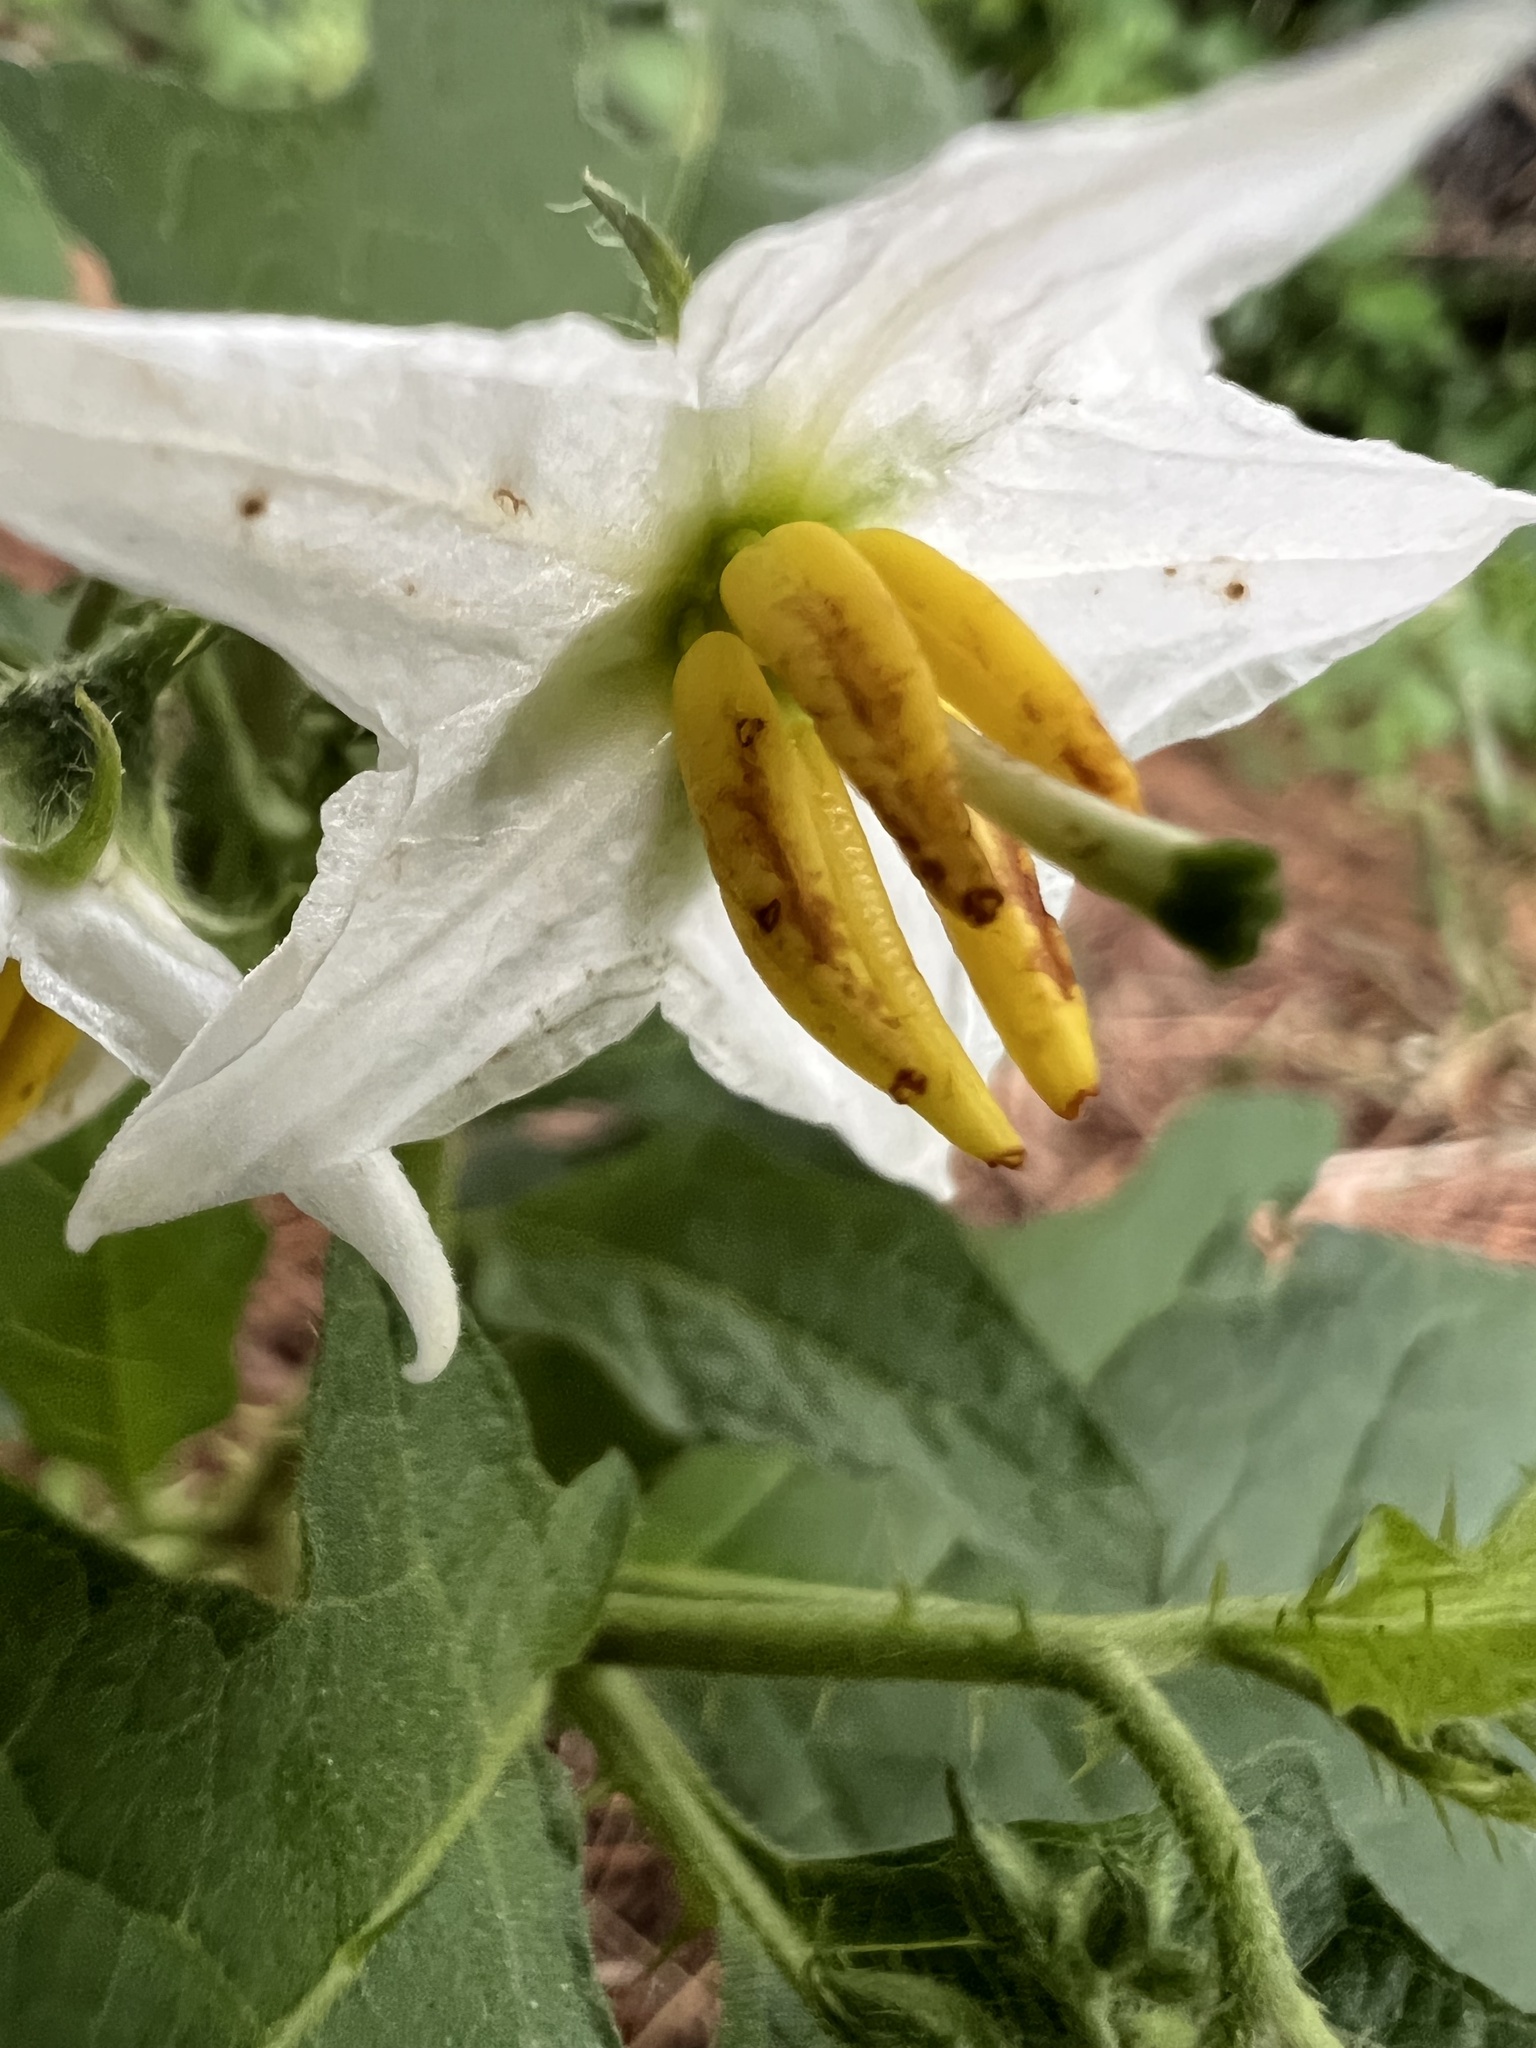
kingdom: Plantae
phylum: Tracheophyta
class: Magnoliopsida
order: Solanales
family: Solanaceae
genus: Solanum
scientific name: Solanum carolinense
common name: Horse-nettle
